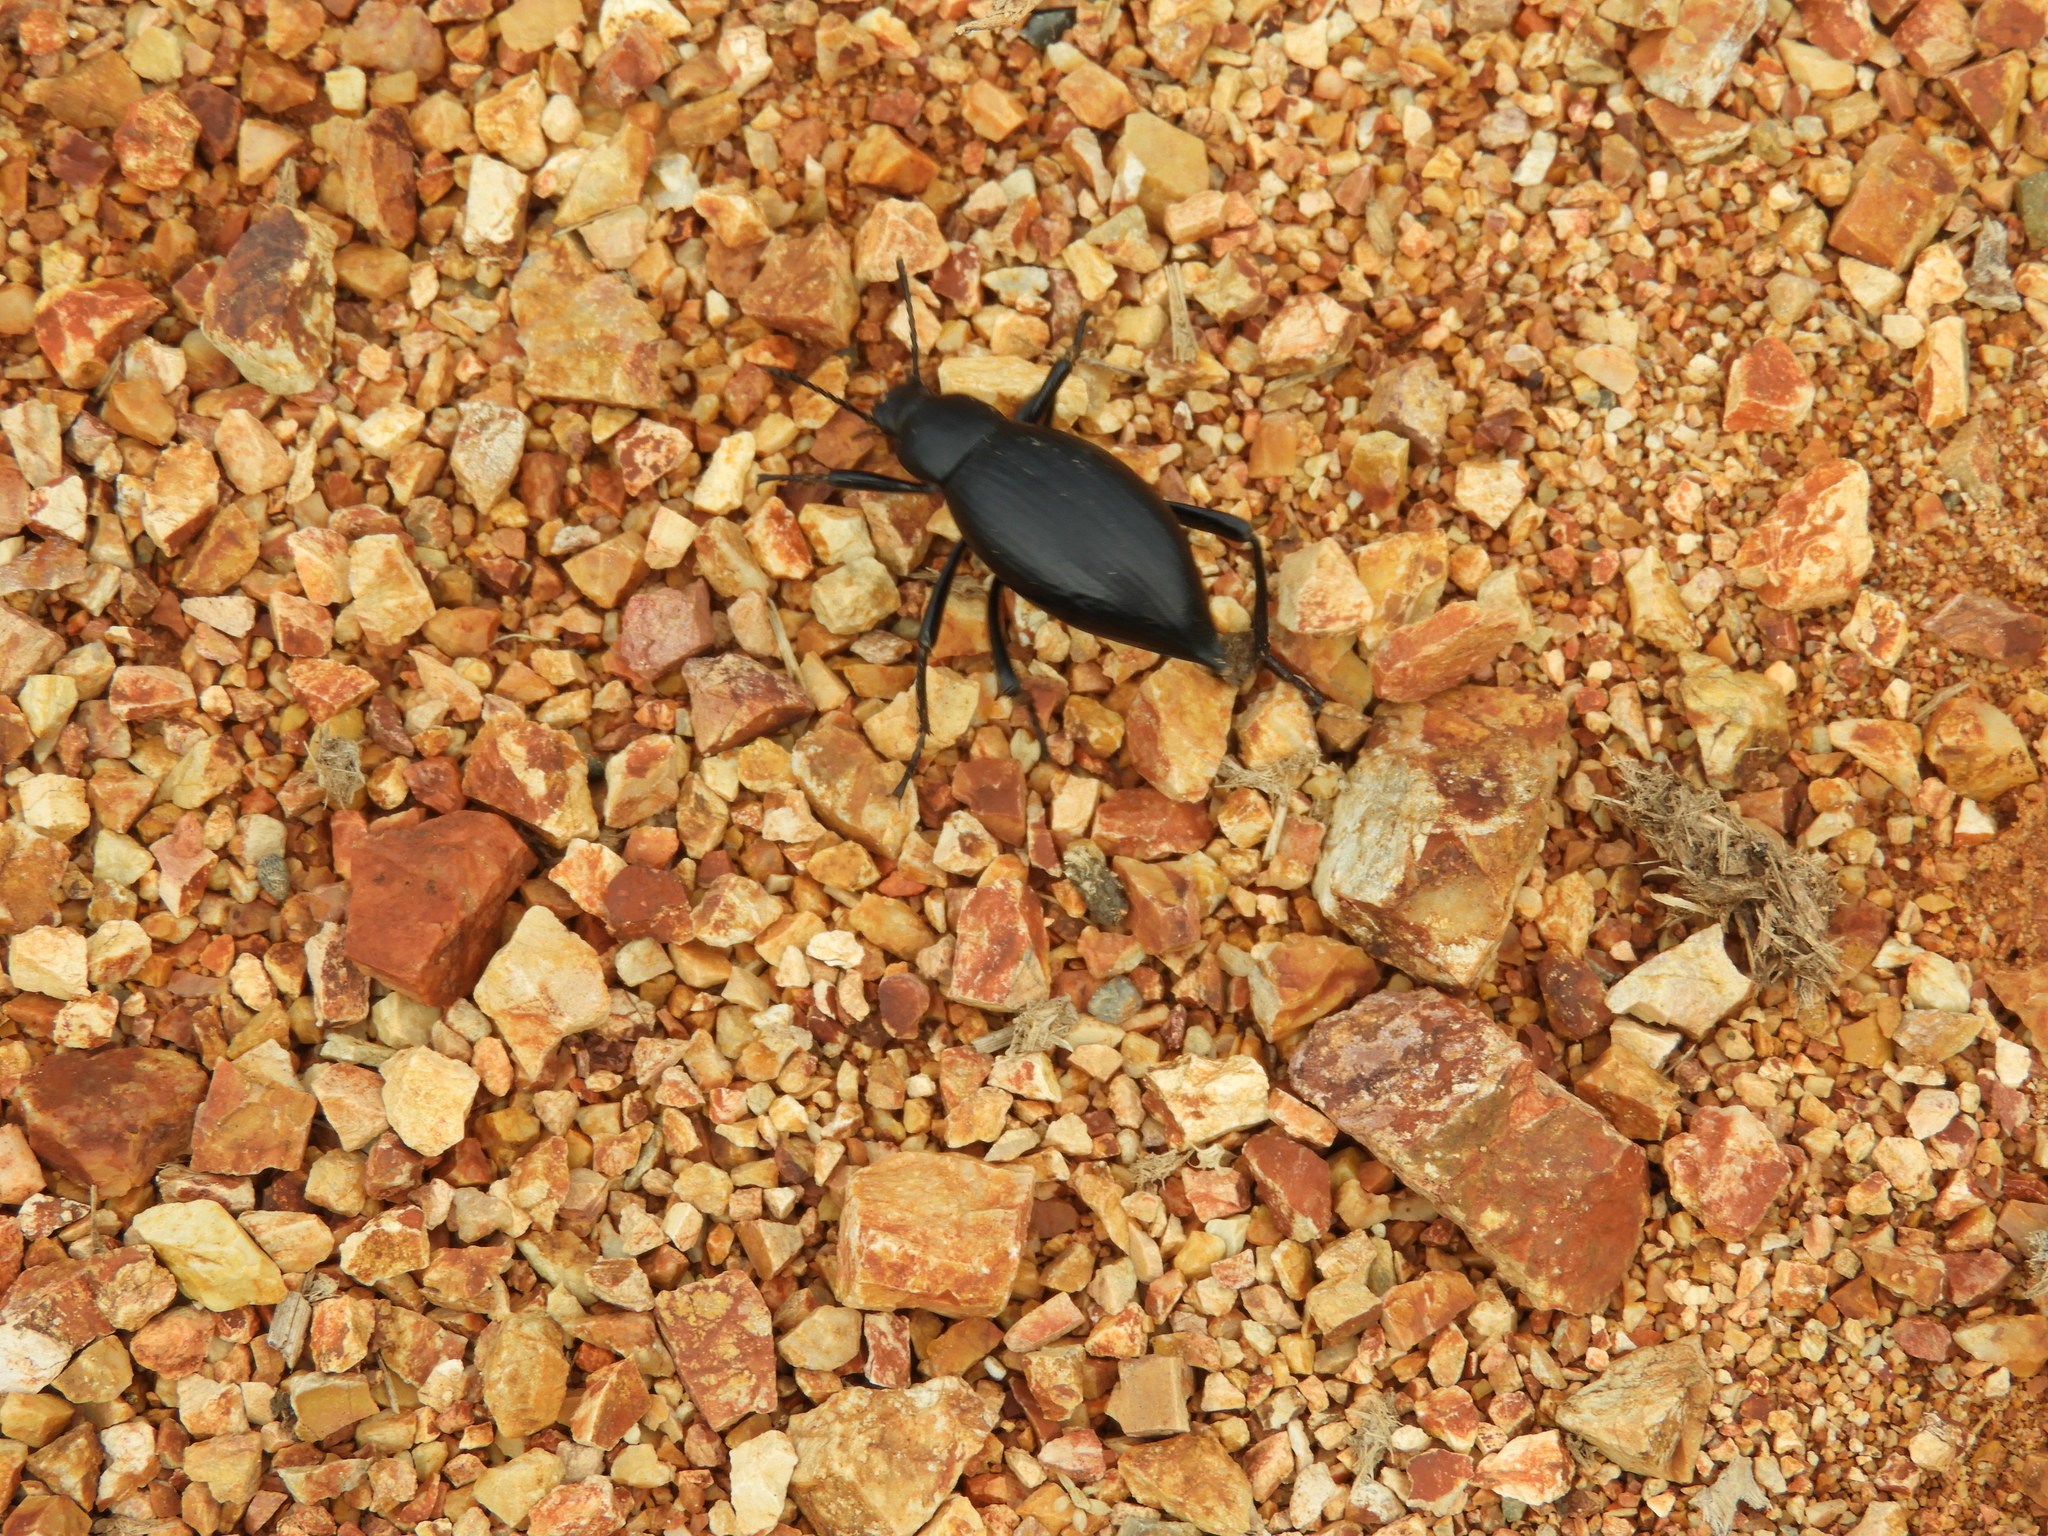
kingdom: Animalia
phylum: Arthropoda
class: Insecta
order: Coleoptera
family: Tenebrionidae
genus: Eleodes
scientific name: Eleodes eschscholtzii
